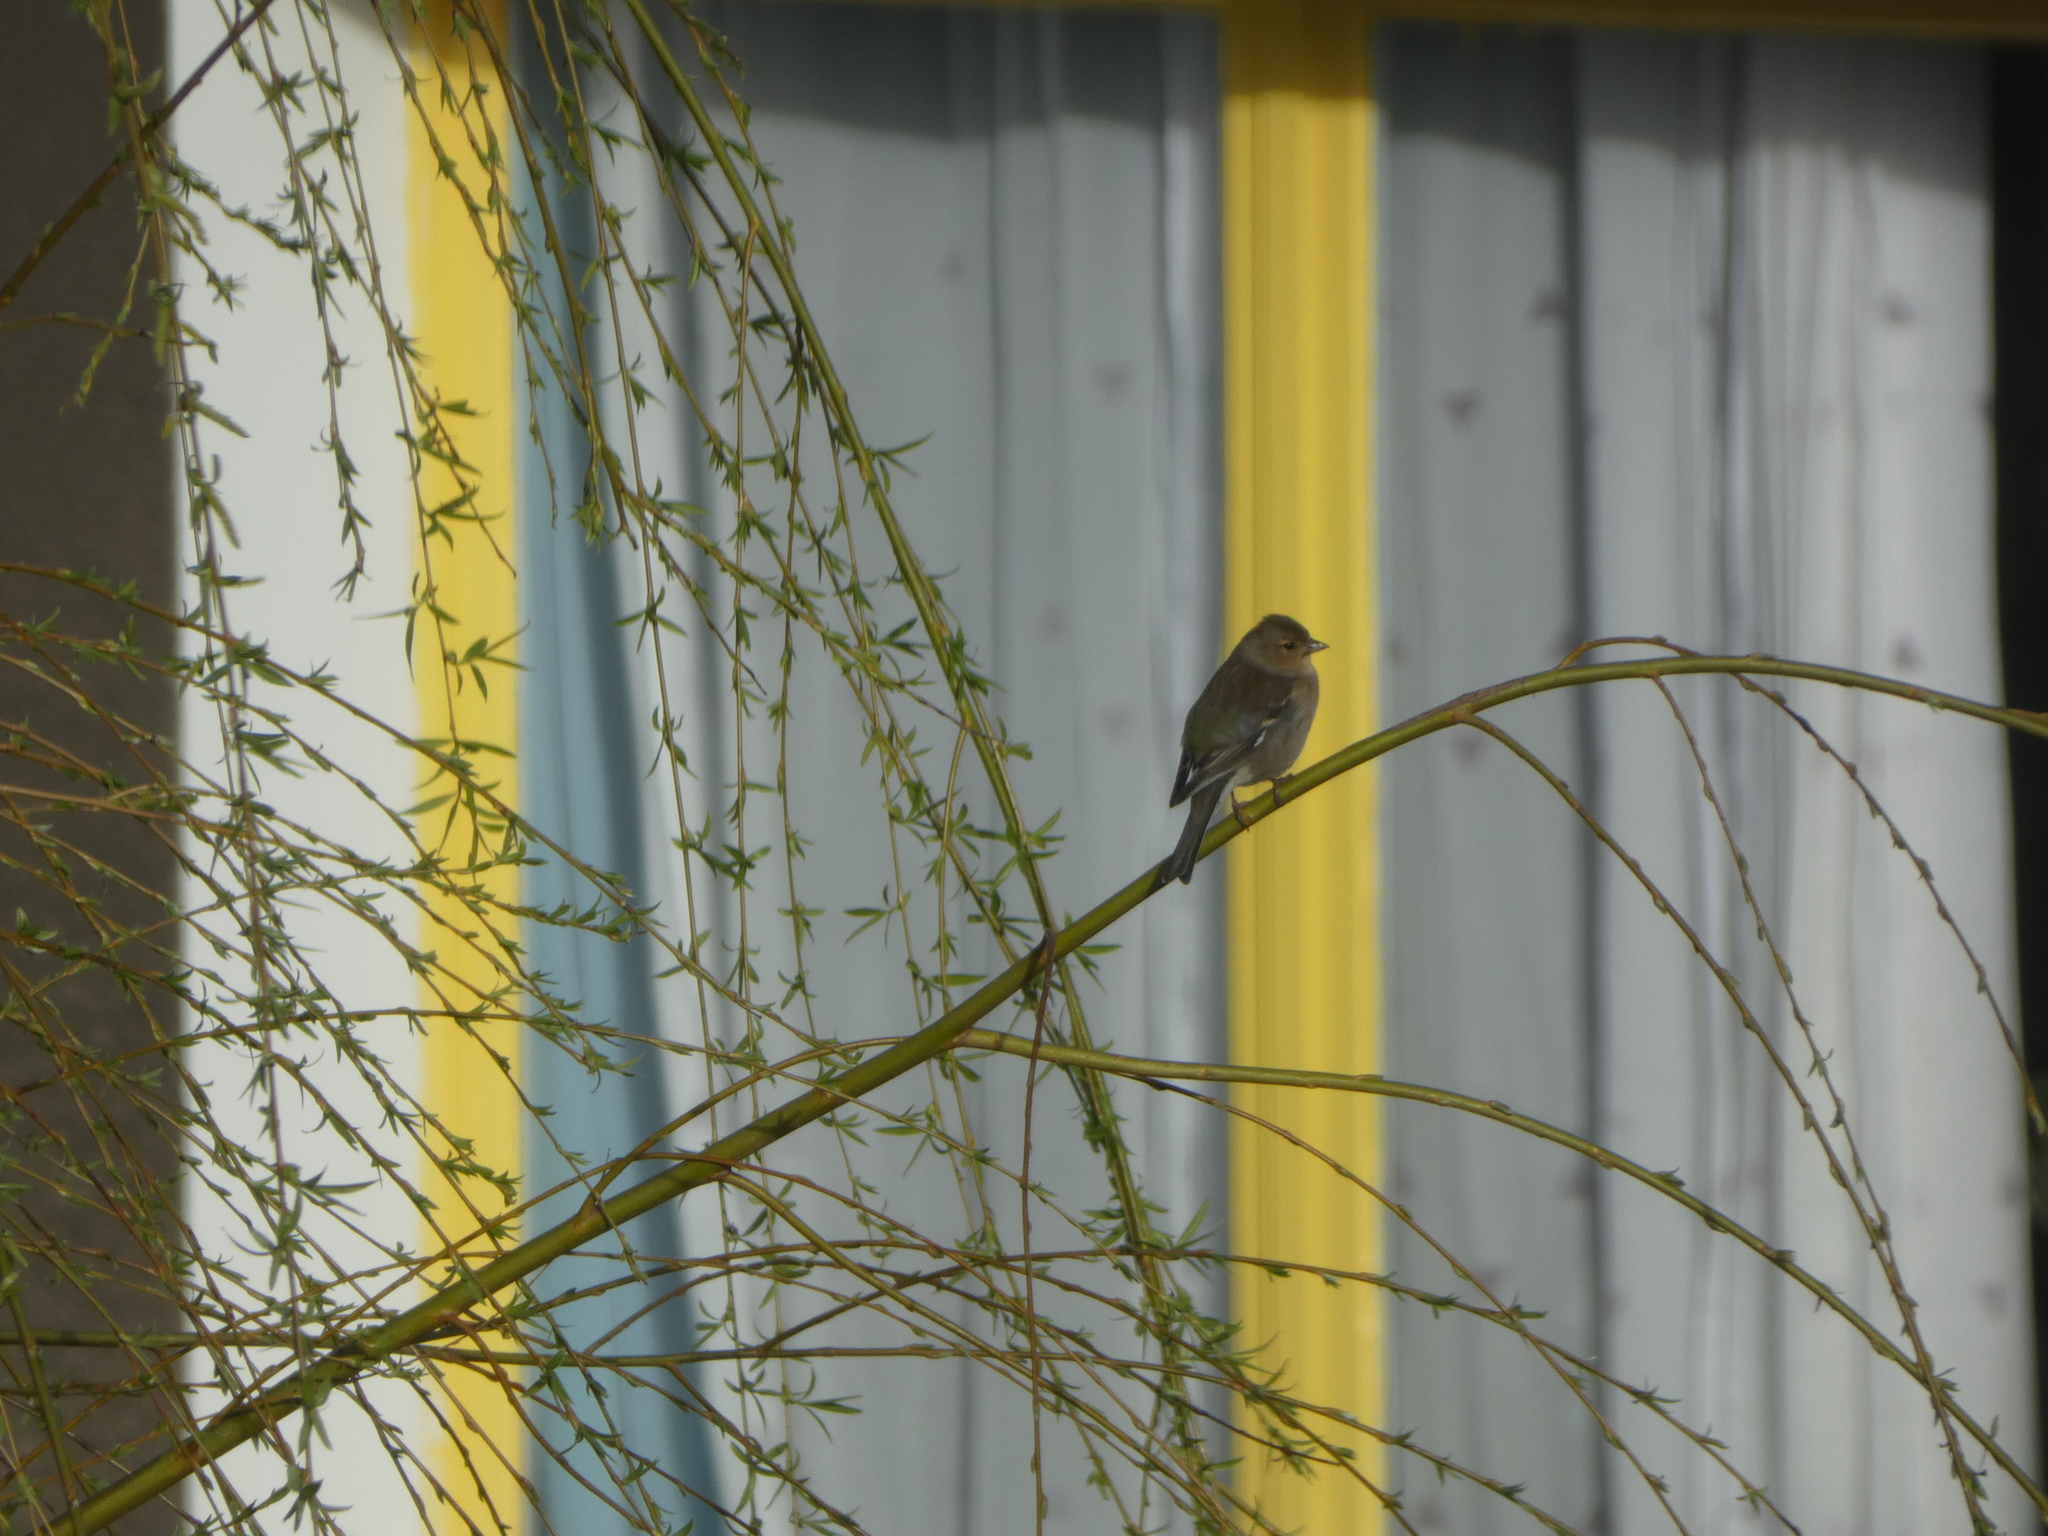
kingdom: Animalia
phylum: Chordata
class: Aves
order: Passeriformes
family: Fringillidae
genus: Fringilla
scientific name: Fringilla coelebs
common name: Common chaffinch
